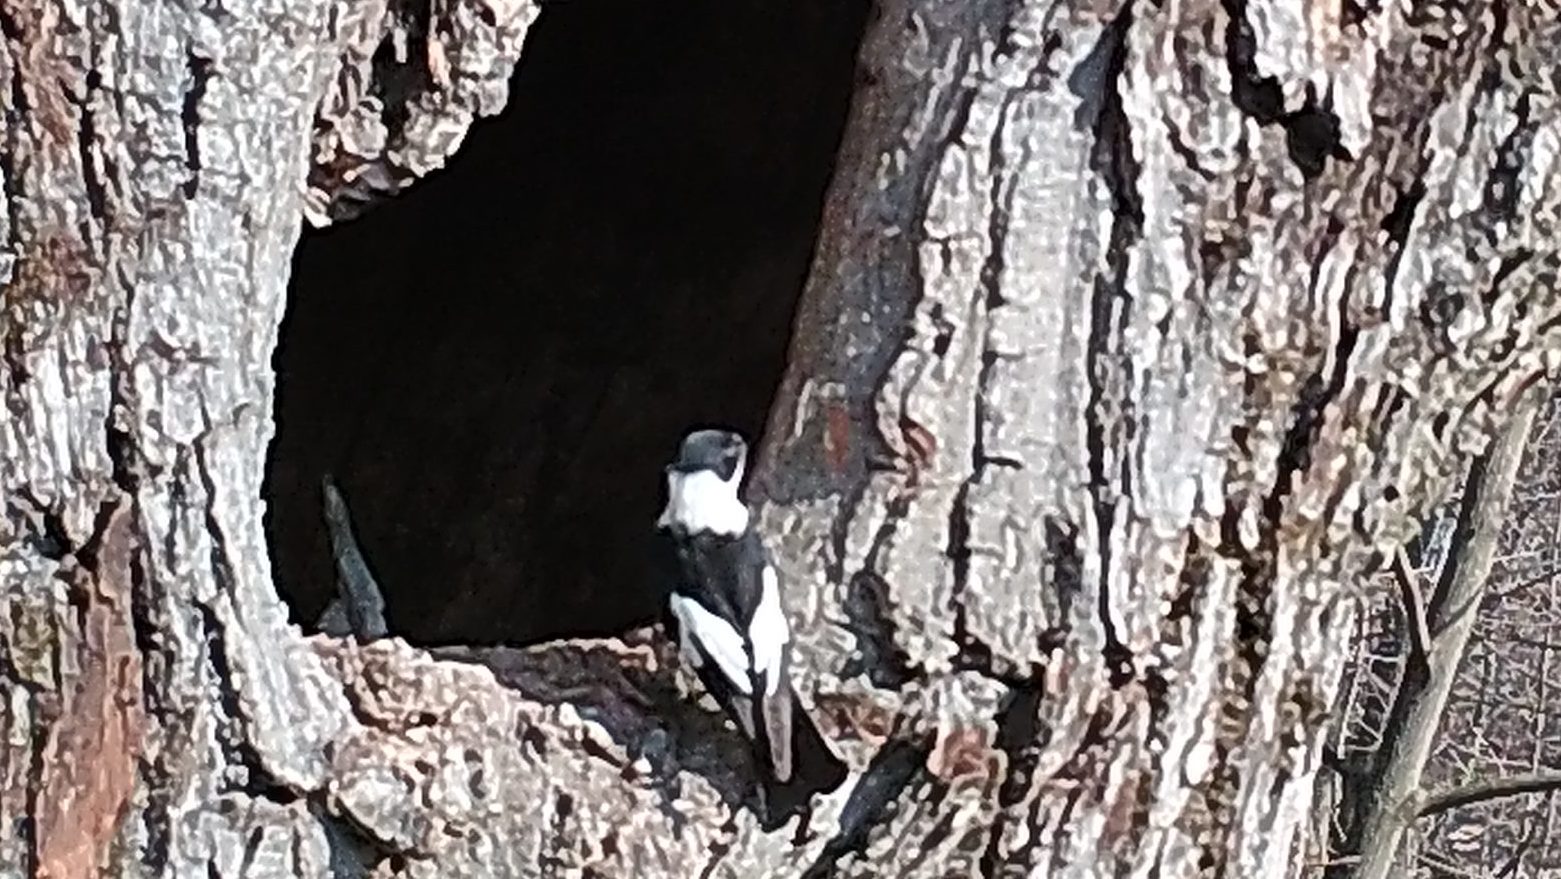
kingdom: Animalia
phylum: Chordata
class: Aves
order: Passeriformes
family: Muscicapidae
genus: Ficedula
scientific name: Ficedula albicollis
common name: Collared flycatcher
